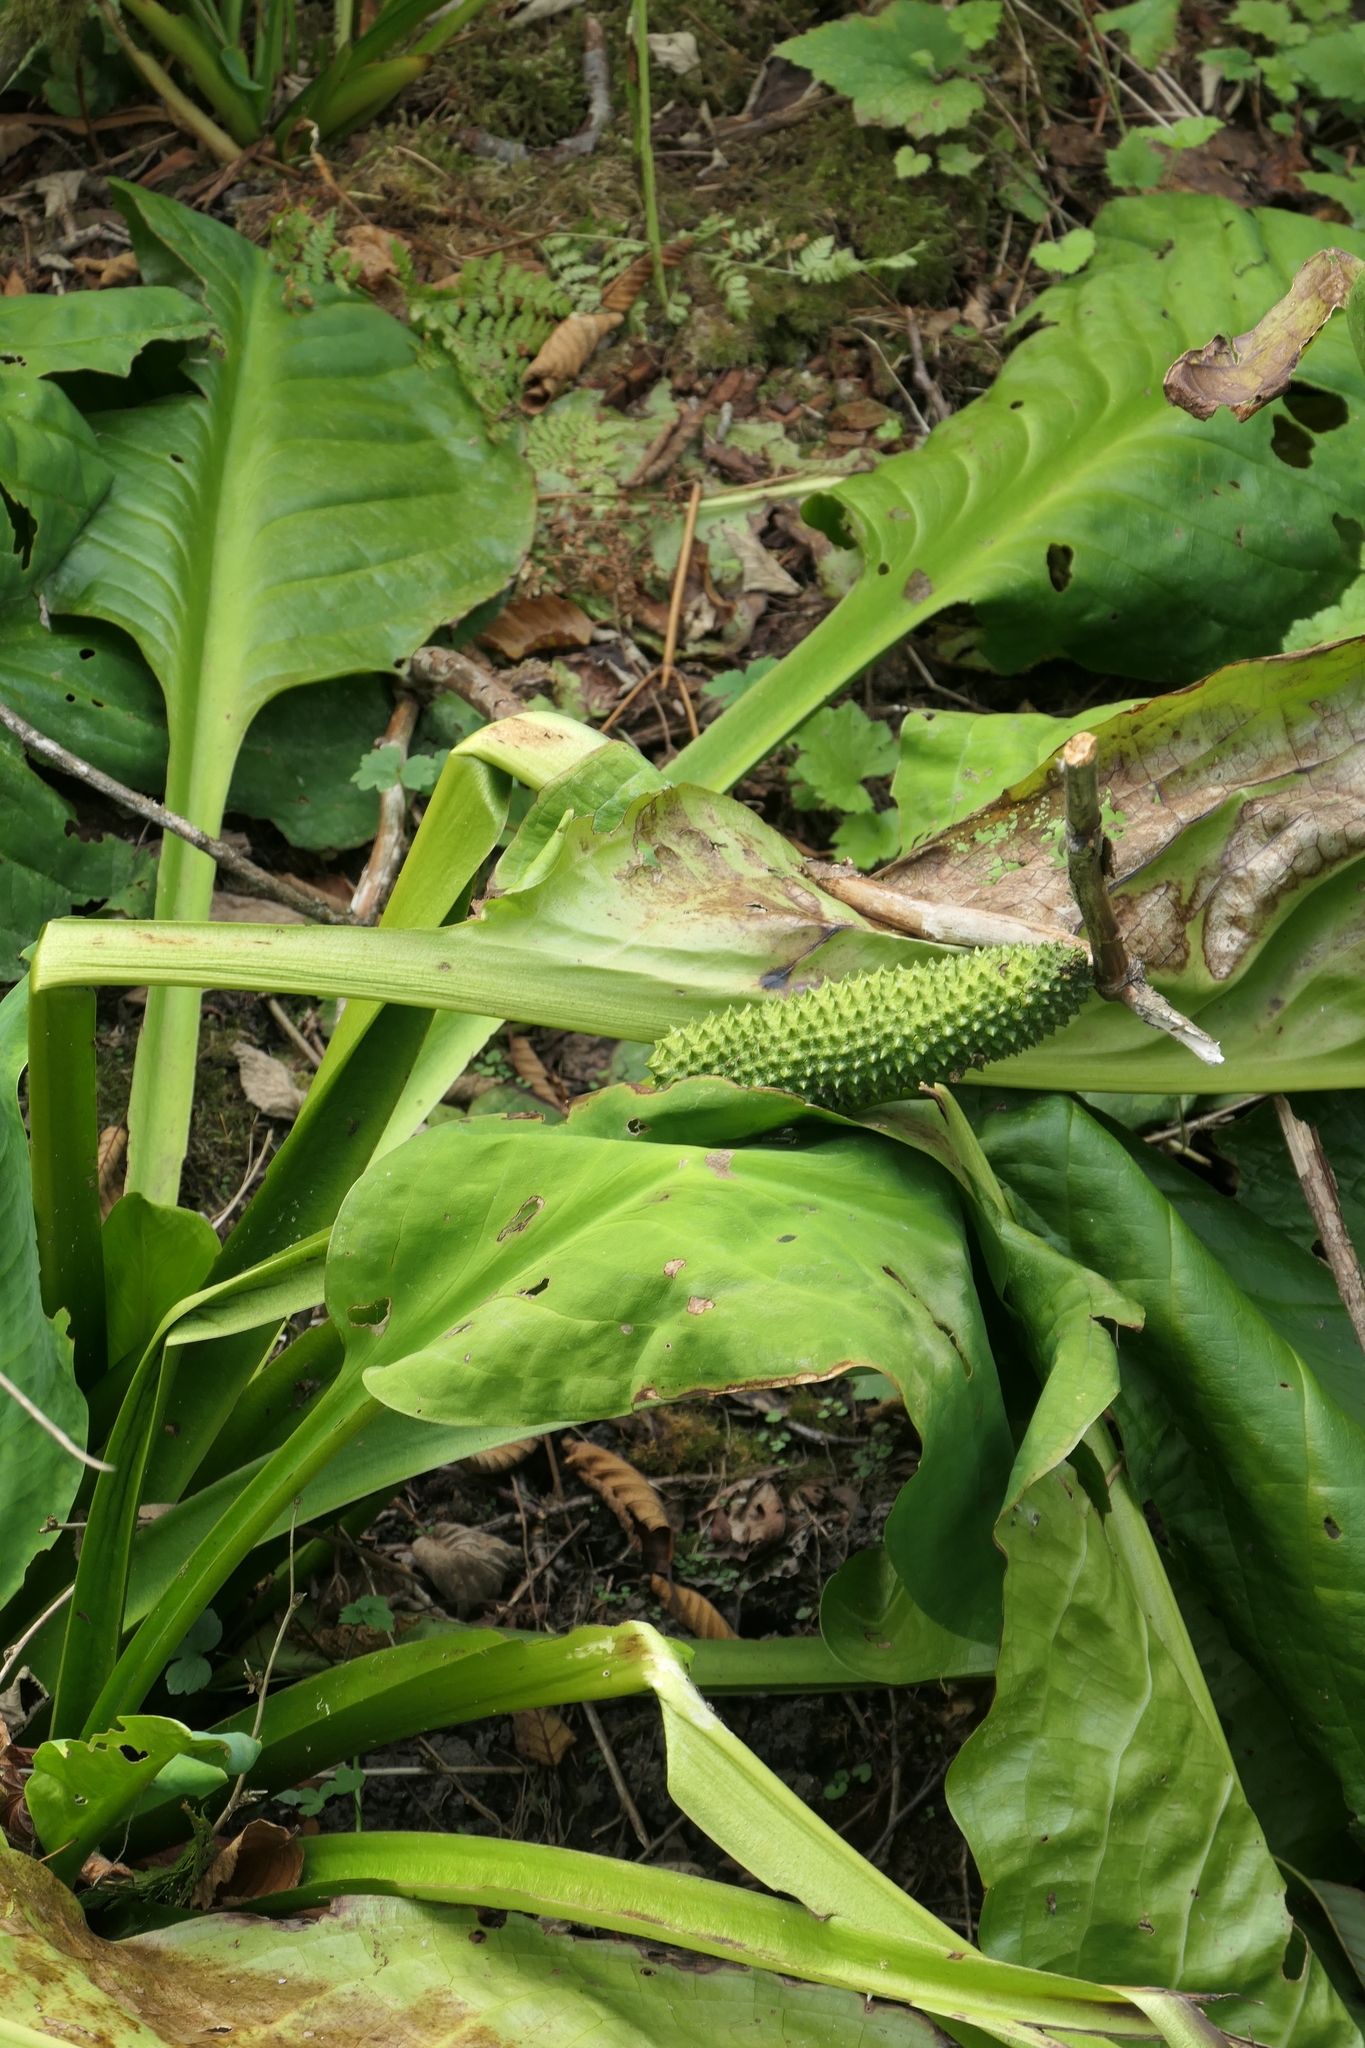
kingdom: Plantae
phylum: Tracheophyta
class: Liliopsida
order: Alismatales
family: Araceae
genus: Lysichiton
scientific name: Lysichiton americanus
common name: American skunk cabbage
